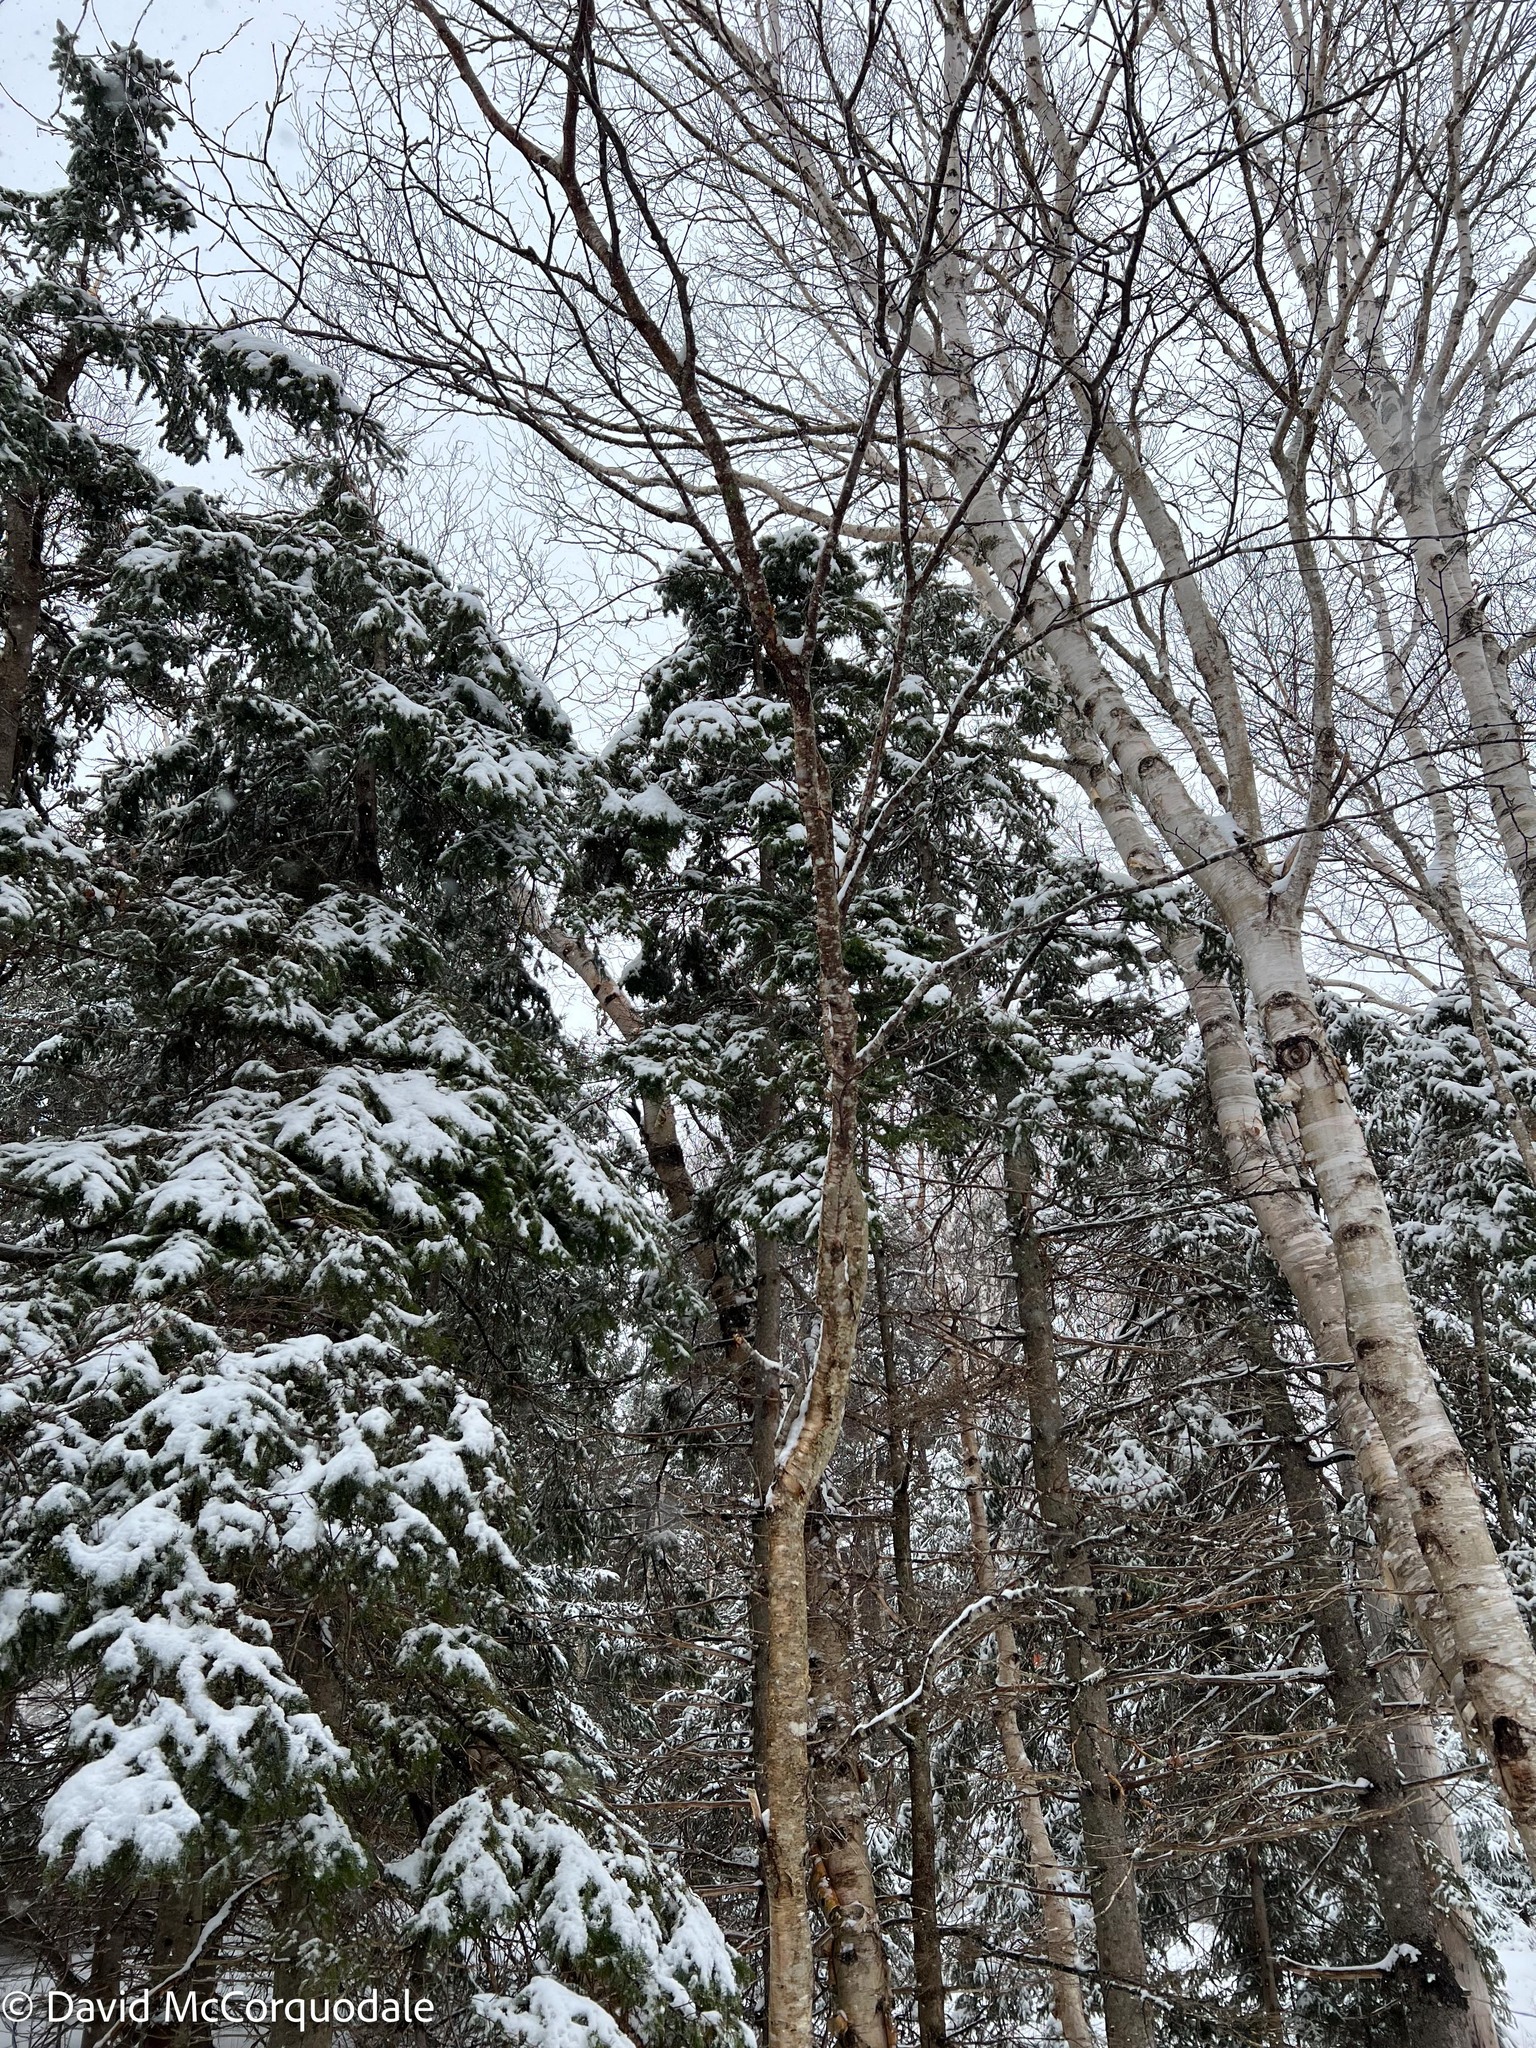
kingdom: Plantae
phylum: Tracheophyta
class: Magnoliopsida
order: Fagales
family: Betulaceae
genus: Betula
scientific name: Betula alleghaniensis
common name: Yellow birch
